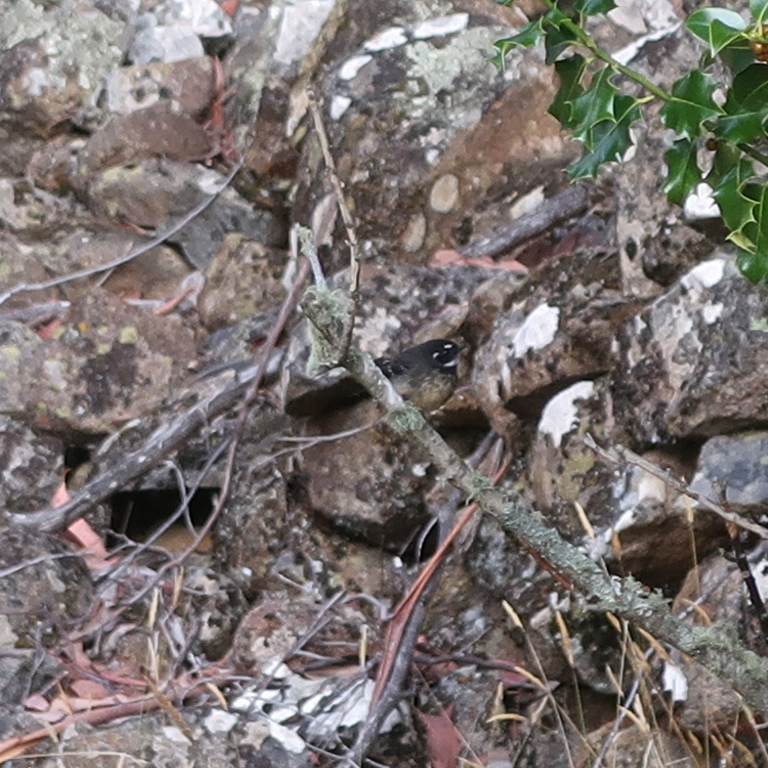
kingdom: Animalia
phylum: Chordata
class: Aves
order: Passeriformes
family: Rhipiduridae
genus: Rhipidura
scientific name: Rhipidura albiscapa
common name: Grey fantail
